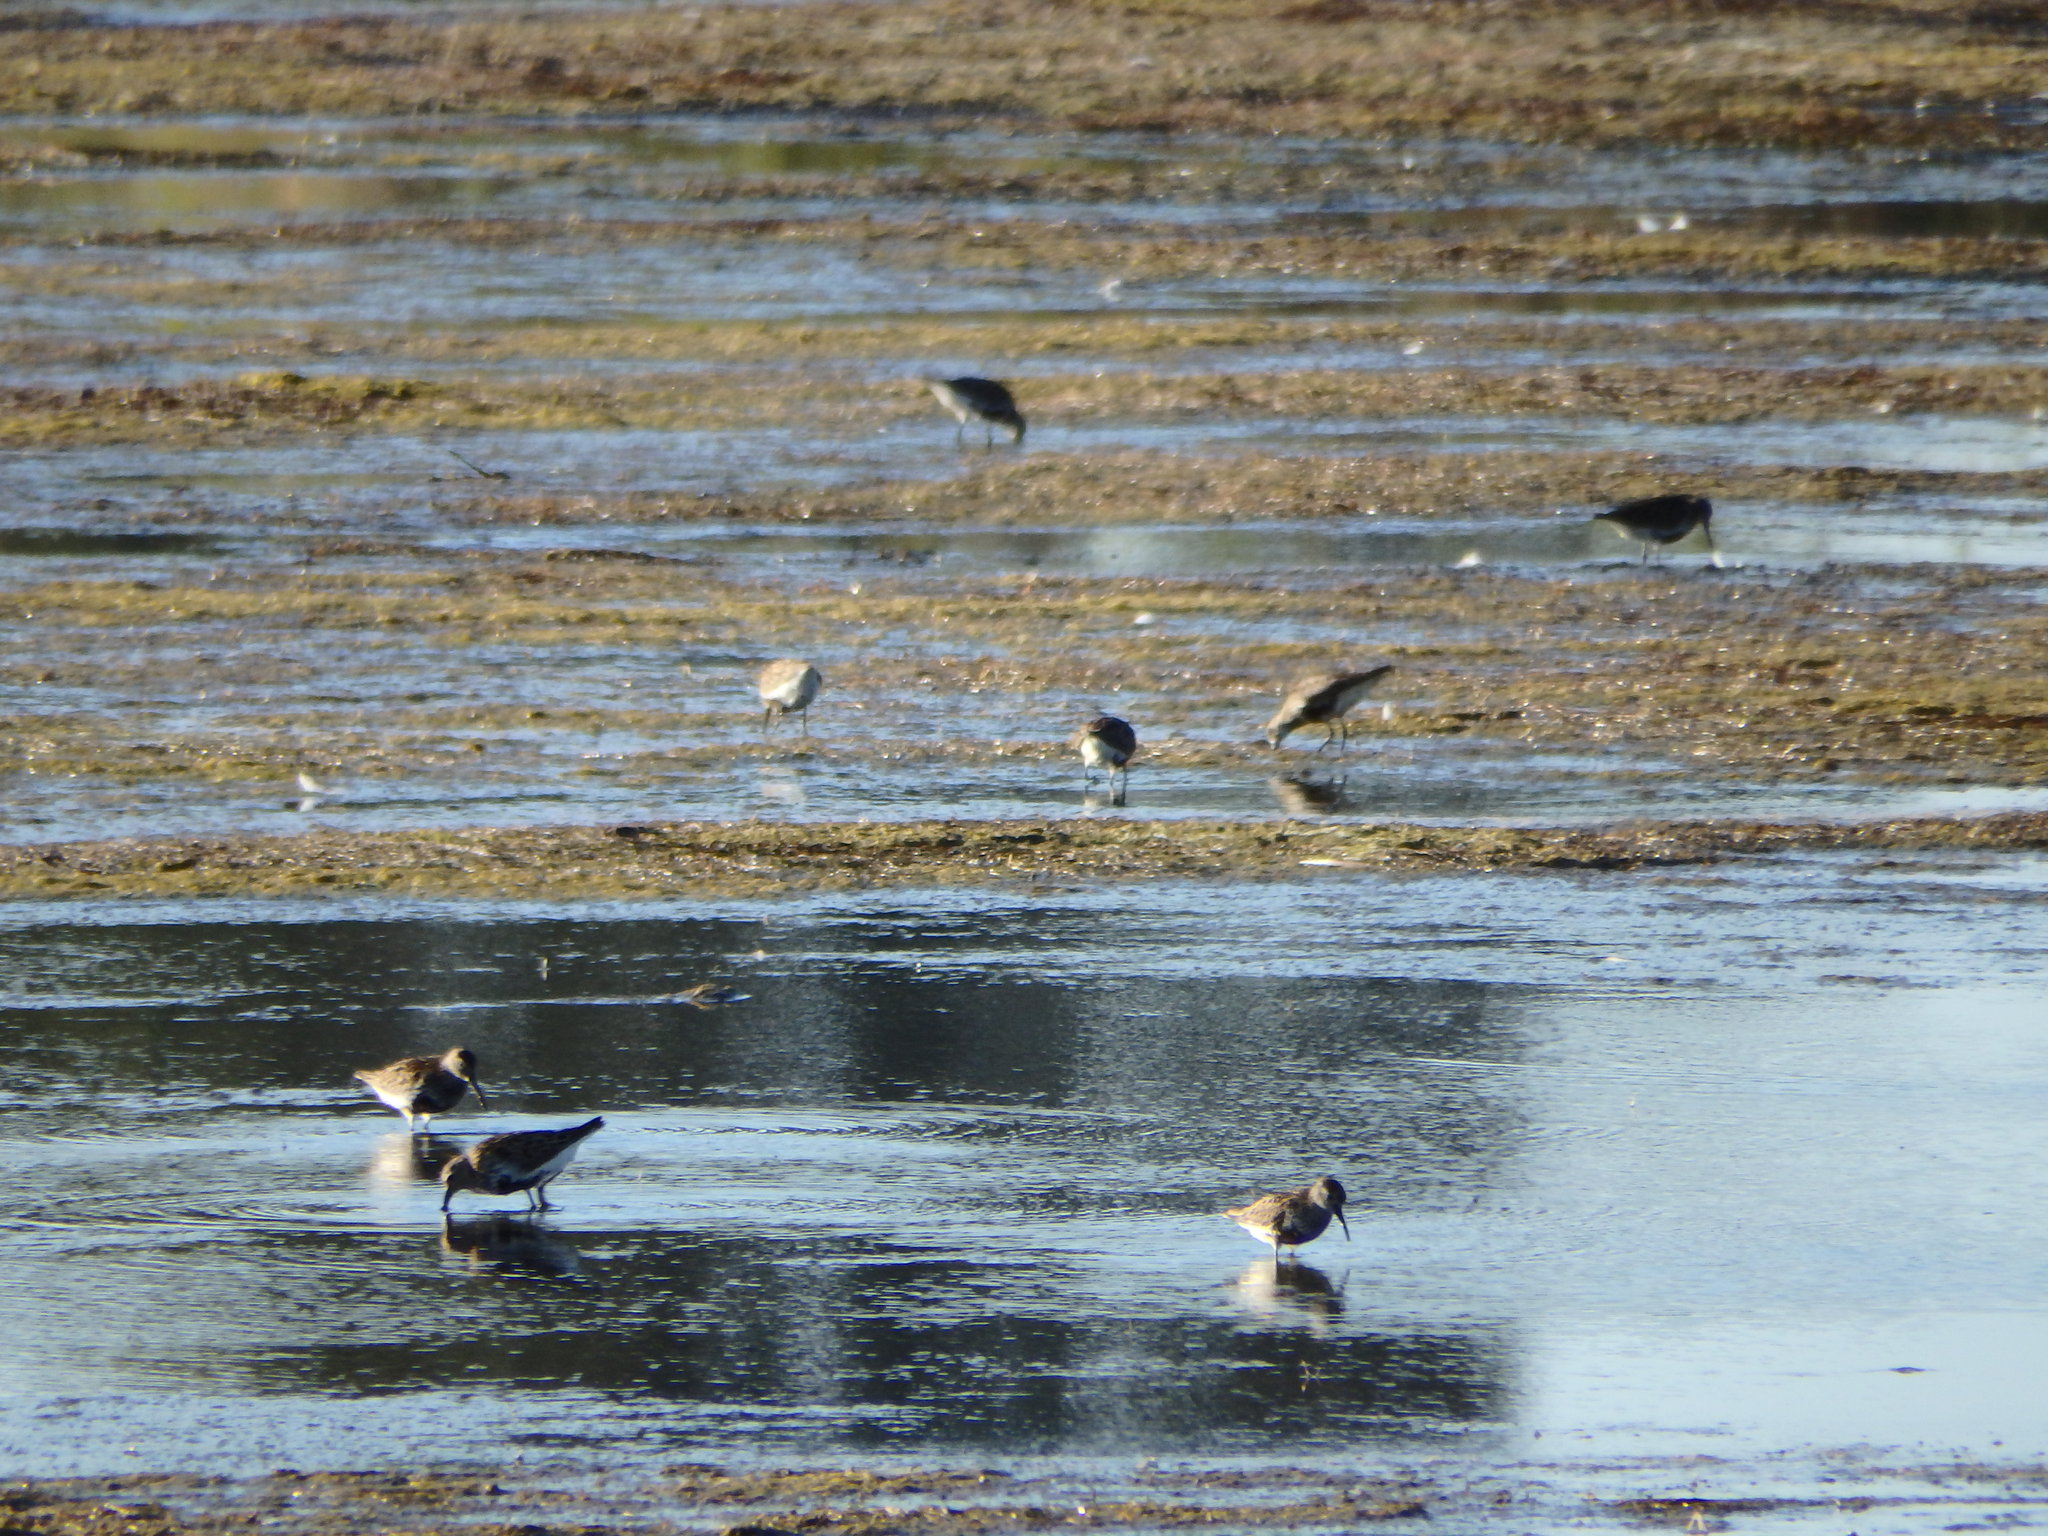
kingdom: Animalia
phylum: Chordata
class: Aves
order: Charadriiformes
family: Scolopacidae
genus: Calidris
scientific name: Calidris alpina
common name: Dunlin
